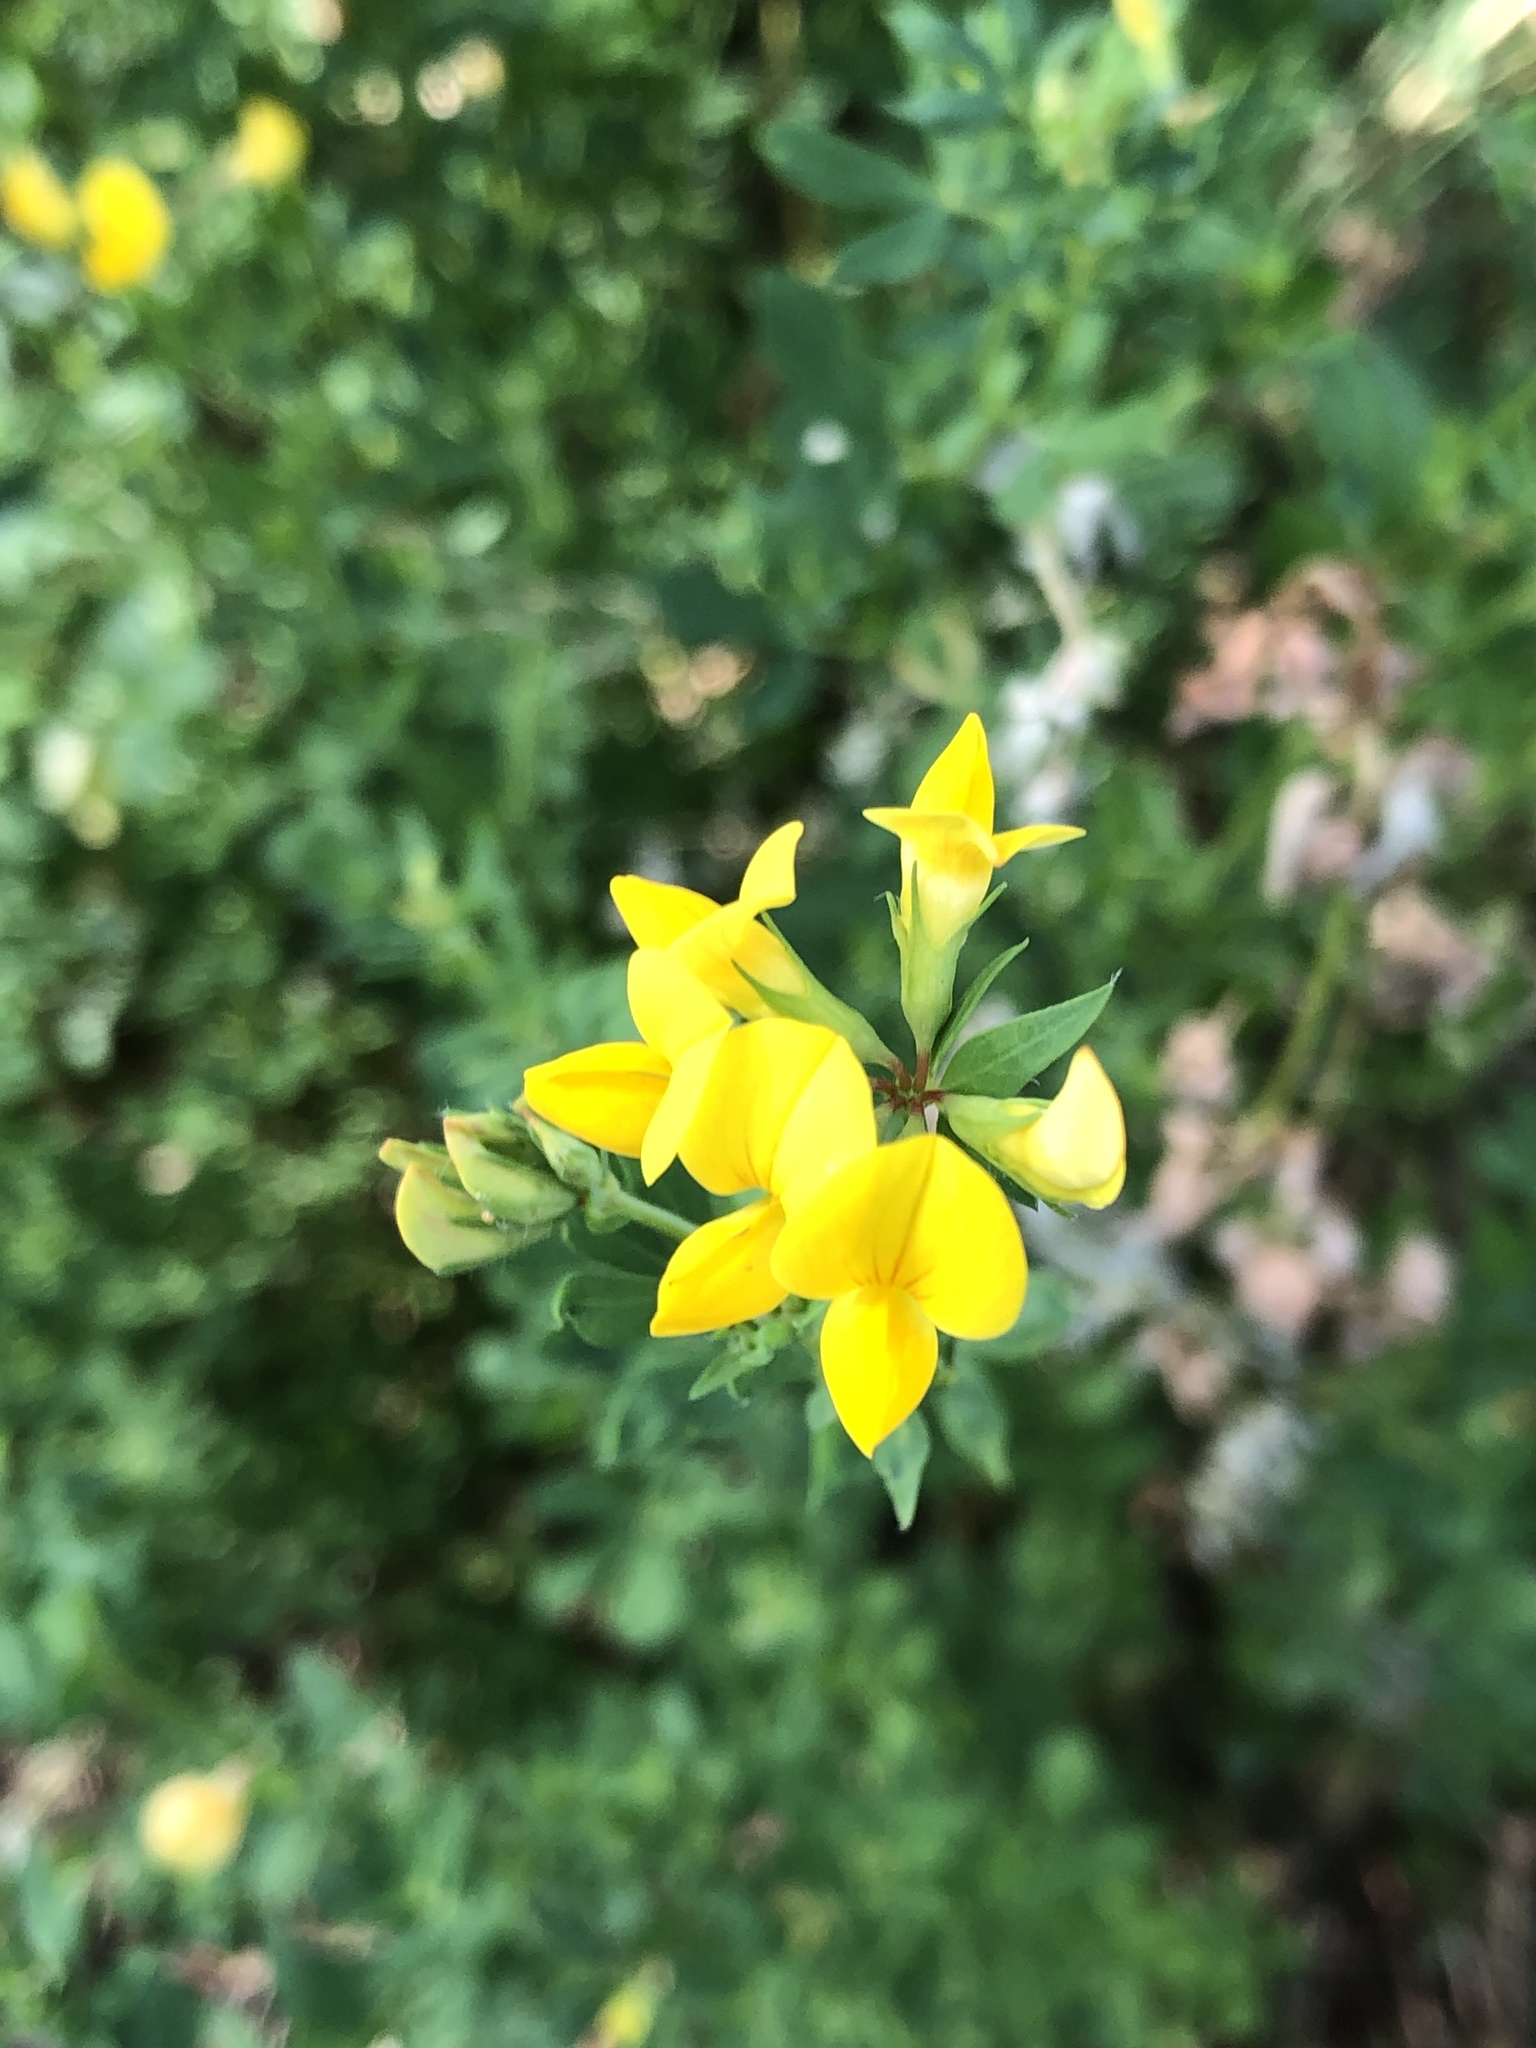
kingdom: Plantae
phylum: Tracheophyta
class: Magnoliopsida
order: Fabales
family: Fabaceae
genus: Lotus
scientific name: Lotus corniculatus
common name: Common bird's-foot-trefoil
